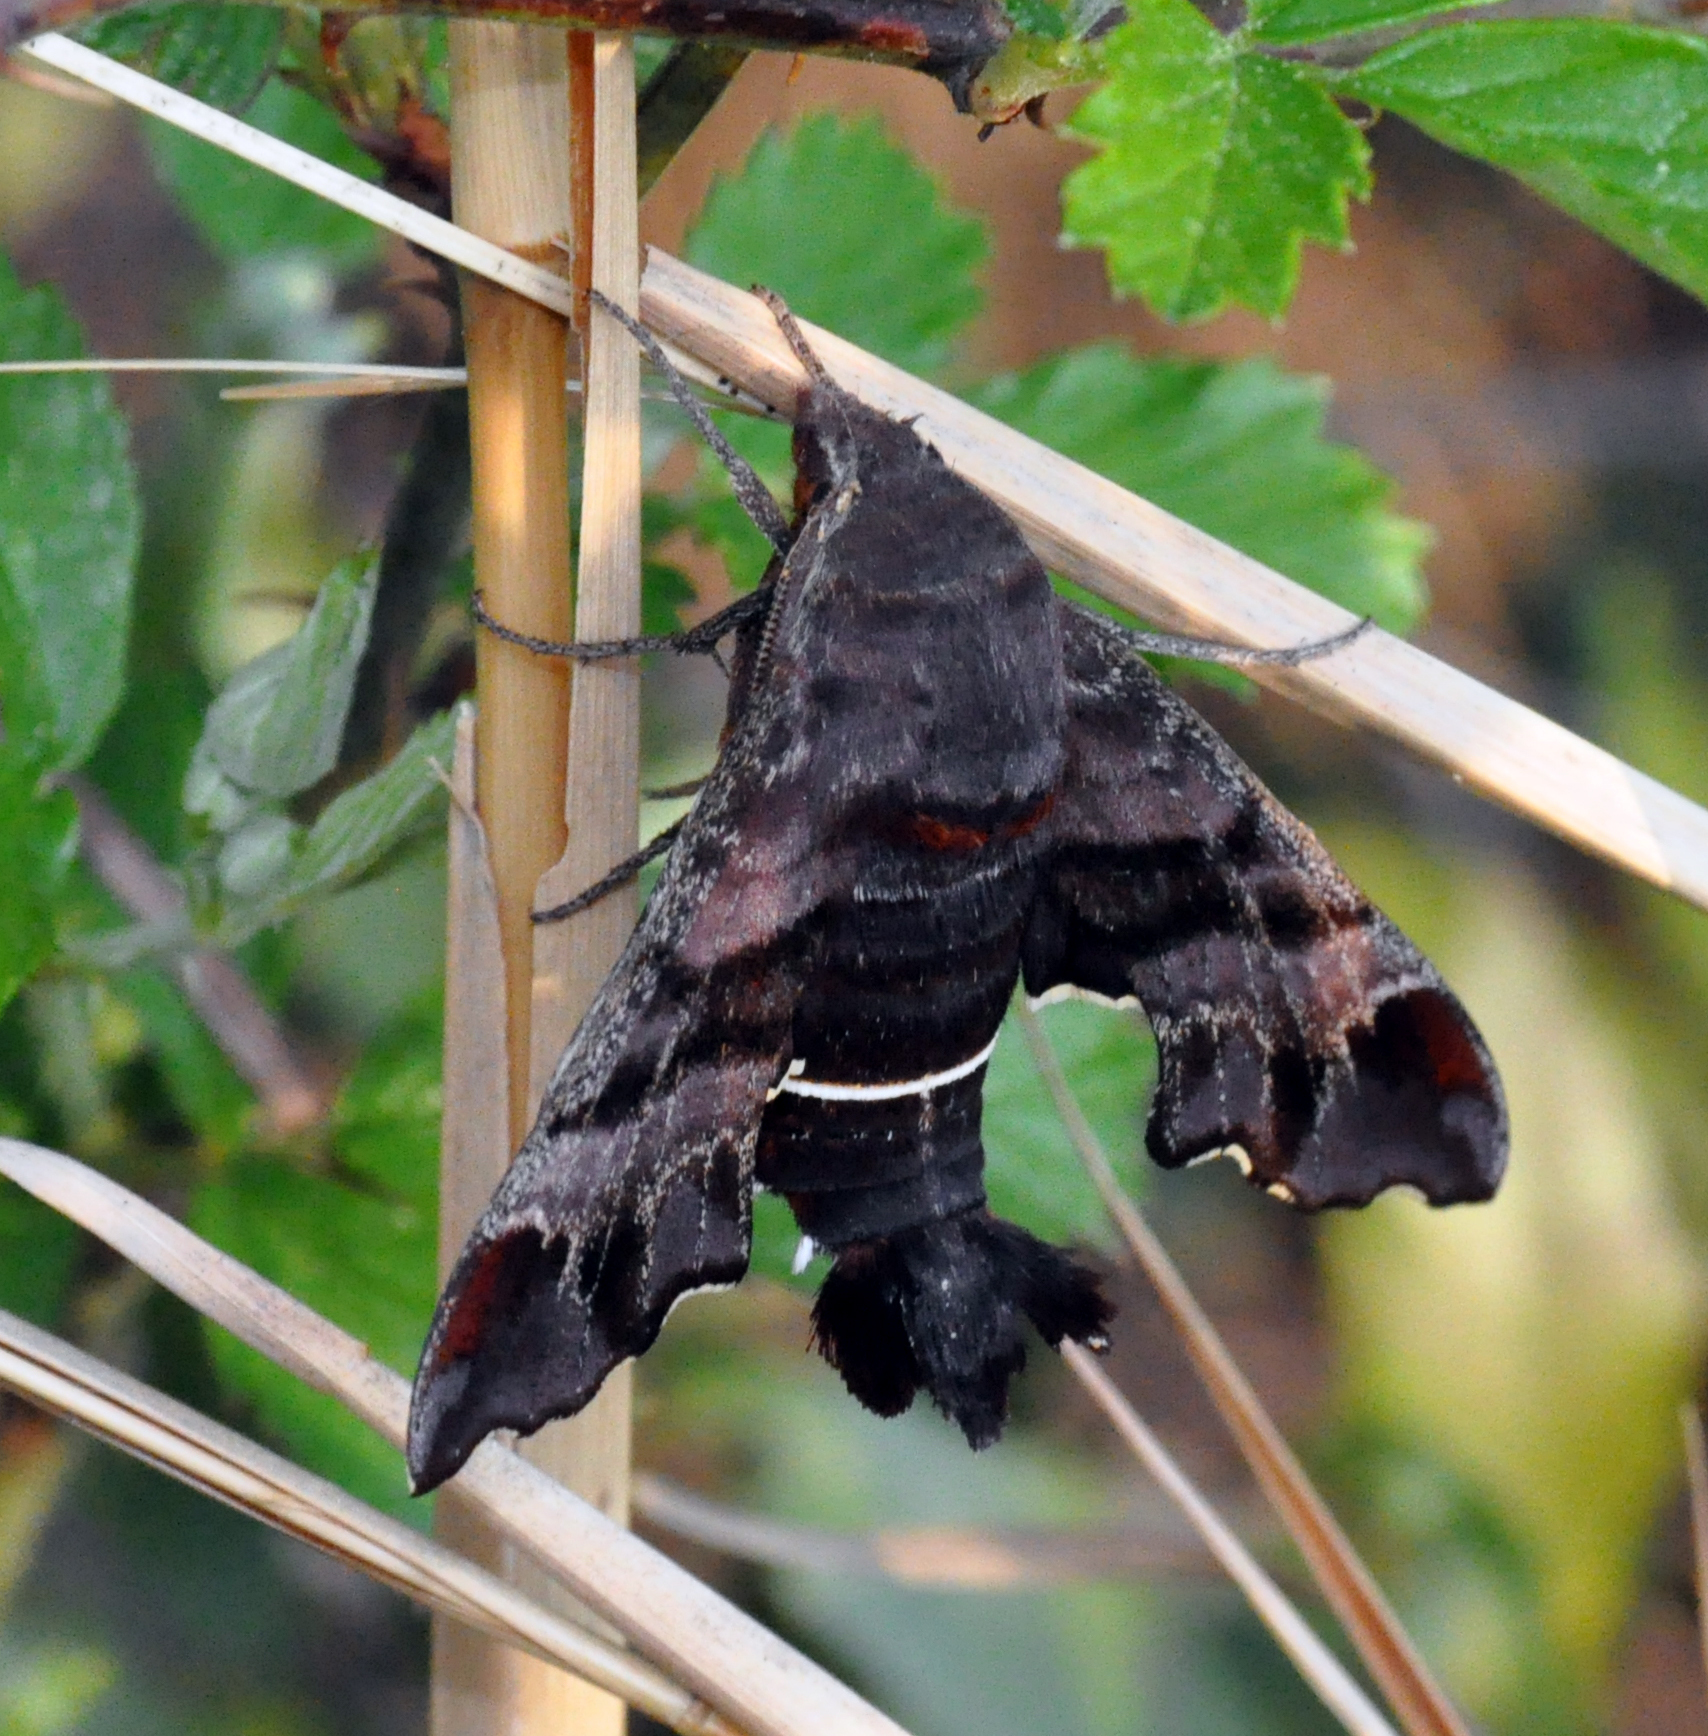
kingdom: Animalia
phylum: Arthropoda
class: Insecta
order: Lepidoptera
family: Sphingidae
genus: Amphion
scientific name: Amphion floridensis
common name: Nessus sphinx
